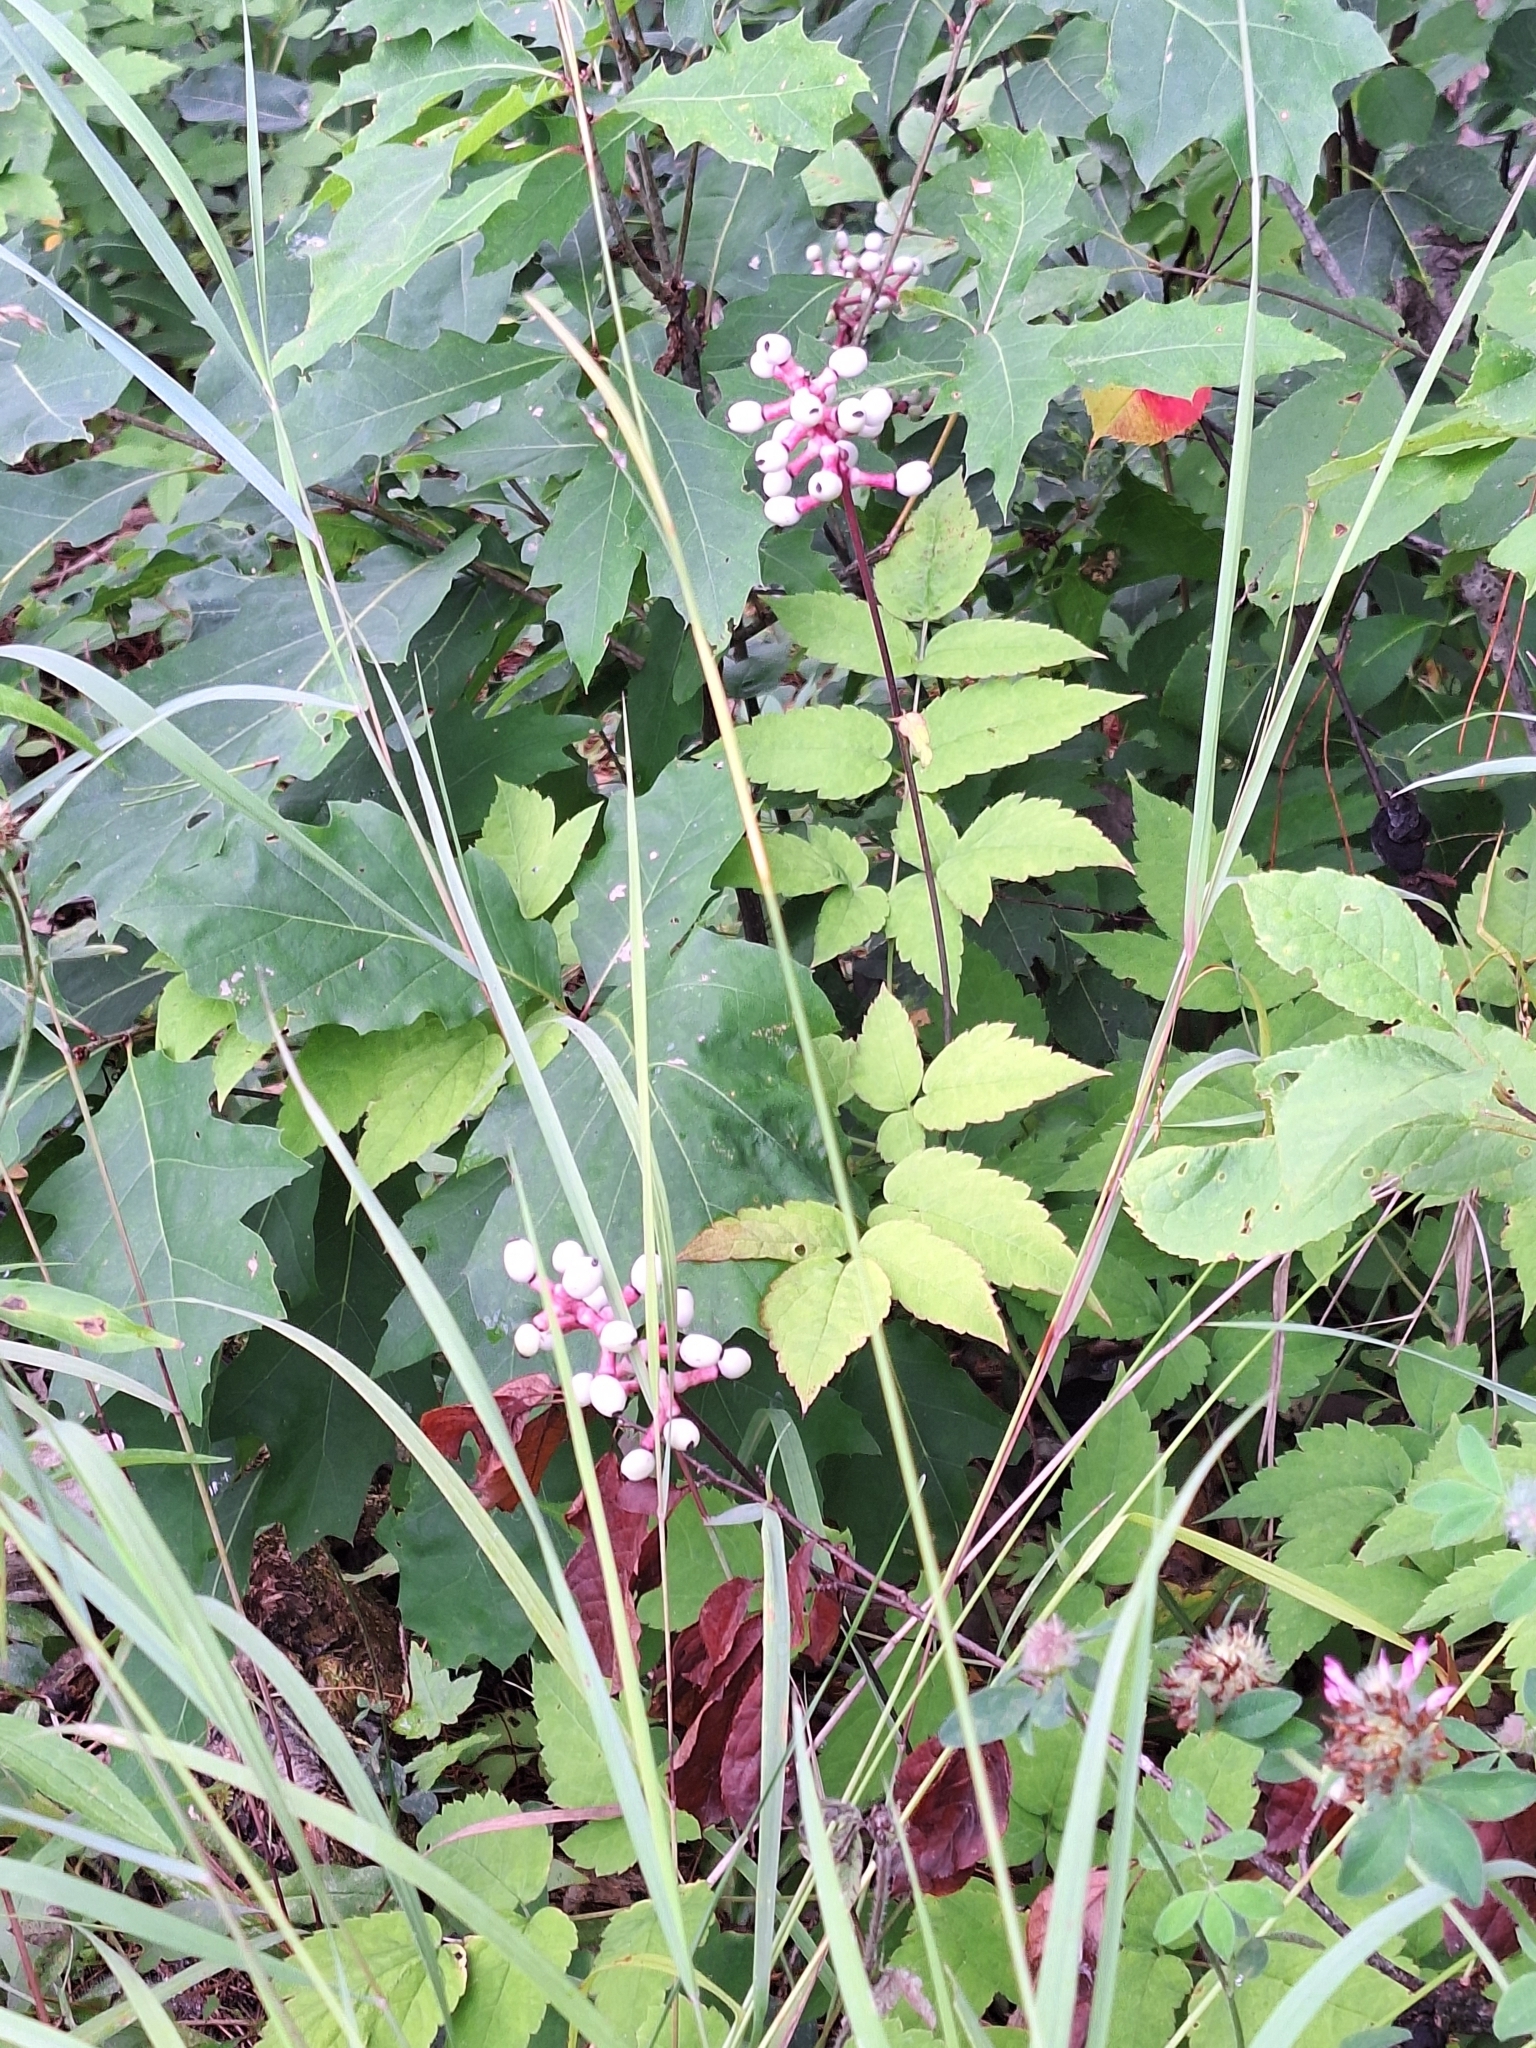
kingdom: Plantae
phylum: Tracheophyta
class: Magnoliopsida
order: Ranunculales
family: Ranunculaceae
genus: Actaea
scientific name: Actaea pachypoda
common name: Doll's-eyes
